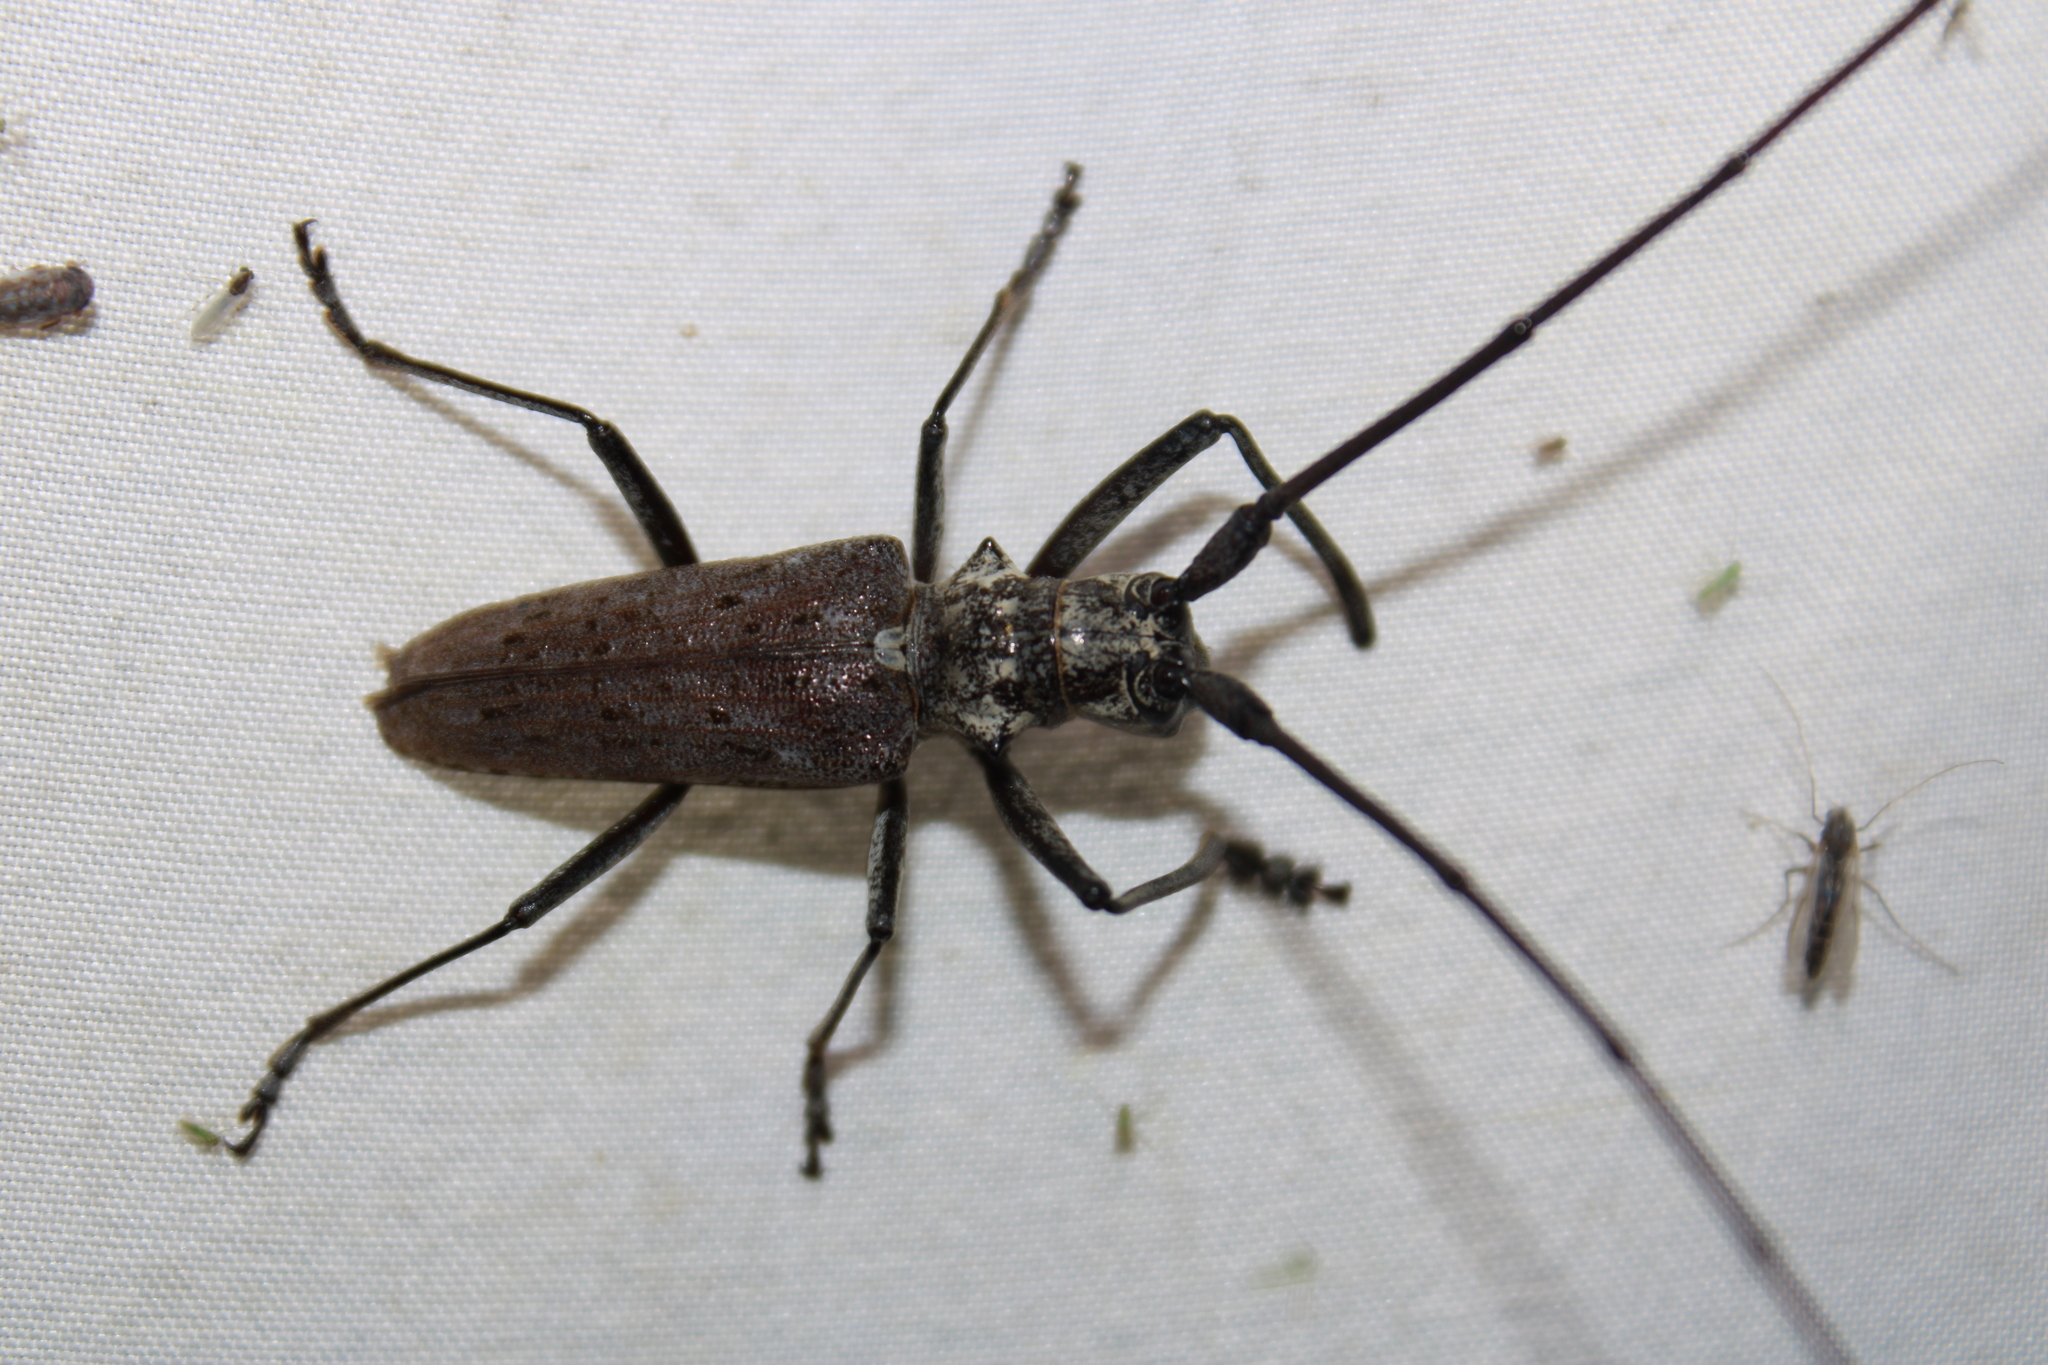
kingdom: Animalia
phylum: Arthropoda
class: Insecta
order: Coleoptera
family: Cerambycidae
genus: Monochamus
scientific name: Monochamus notatus
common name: Northeastern pine sawyer beetle
